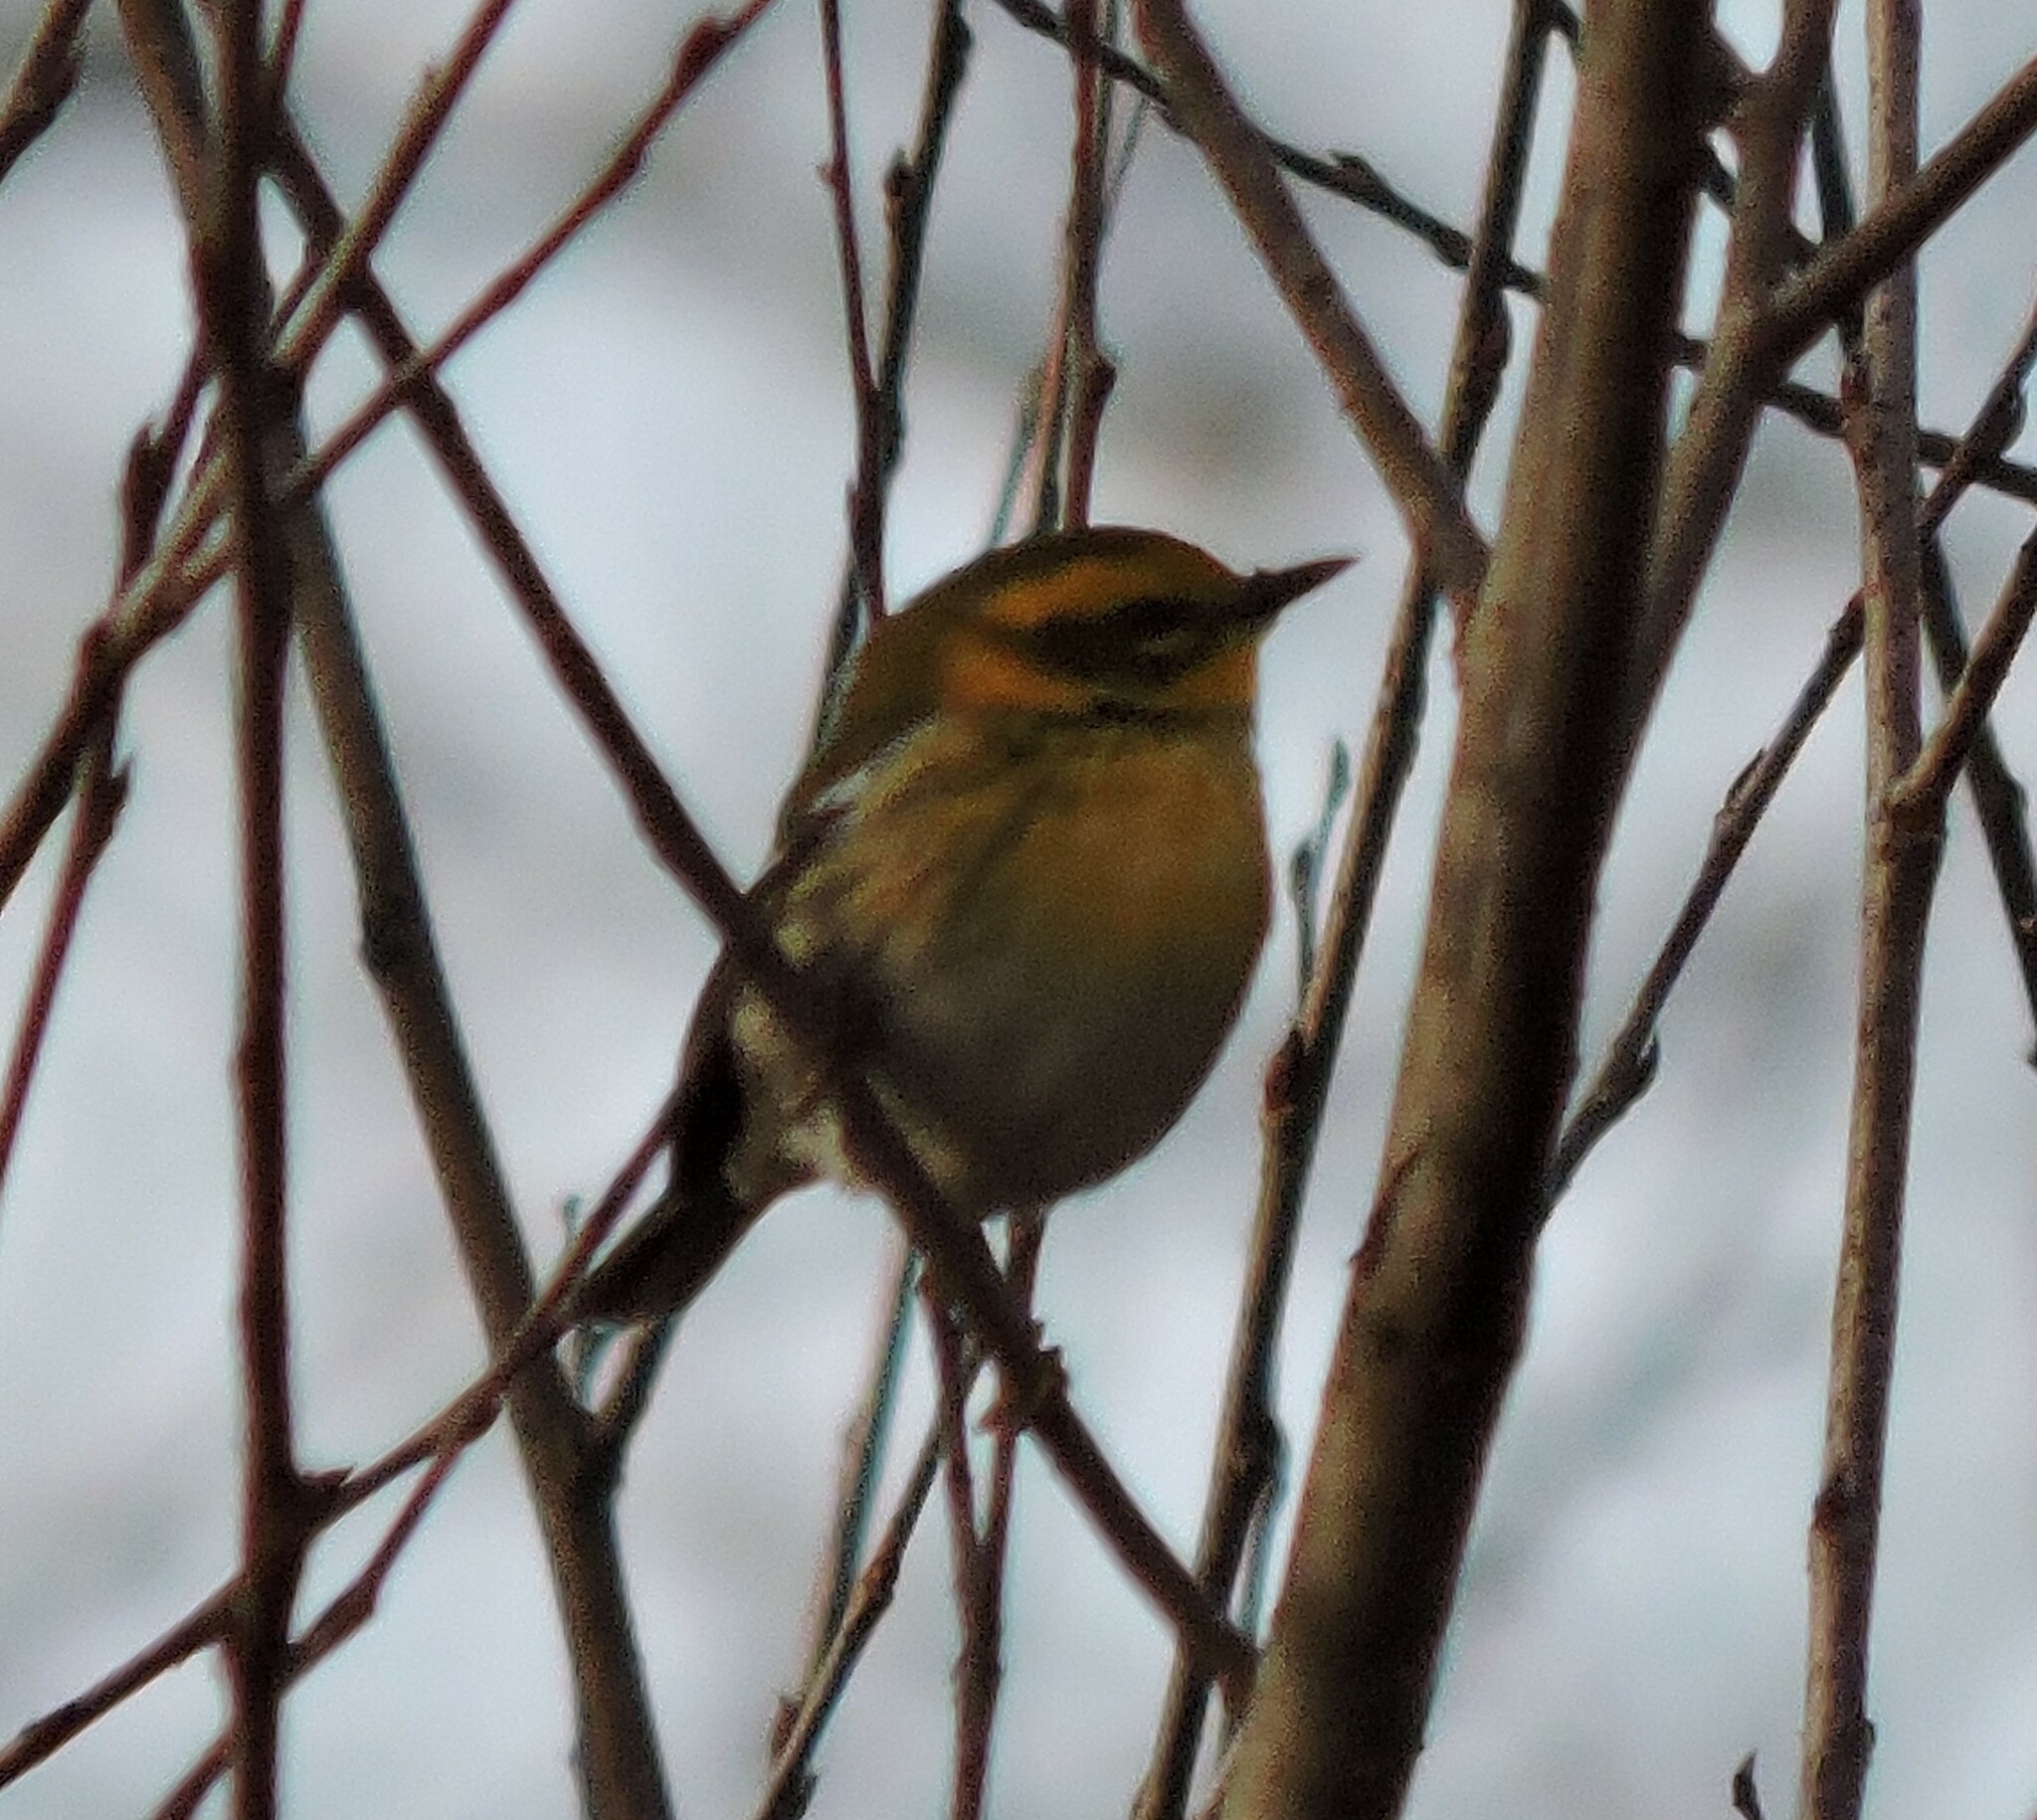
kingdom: Animalia
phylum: Chordata
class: Aves
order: Passeriformes
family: Parulidae
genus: Setophaga
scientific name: Setophaga townsendi
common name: Townsend's warbler
